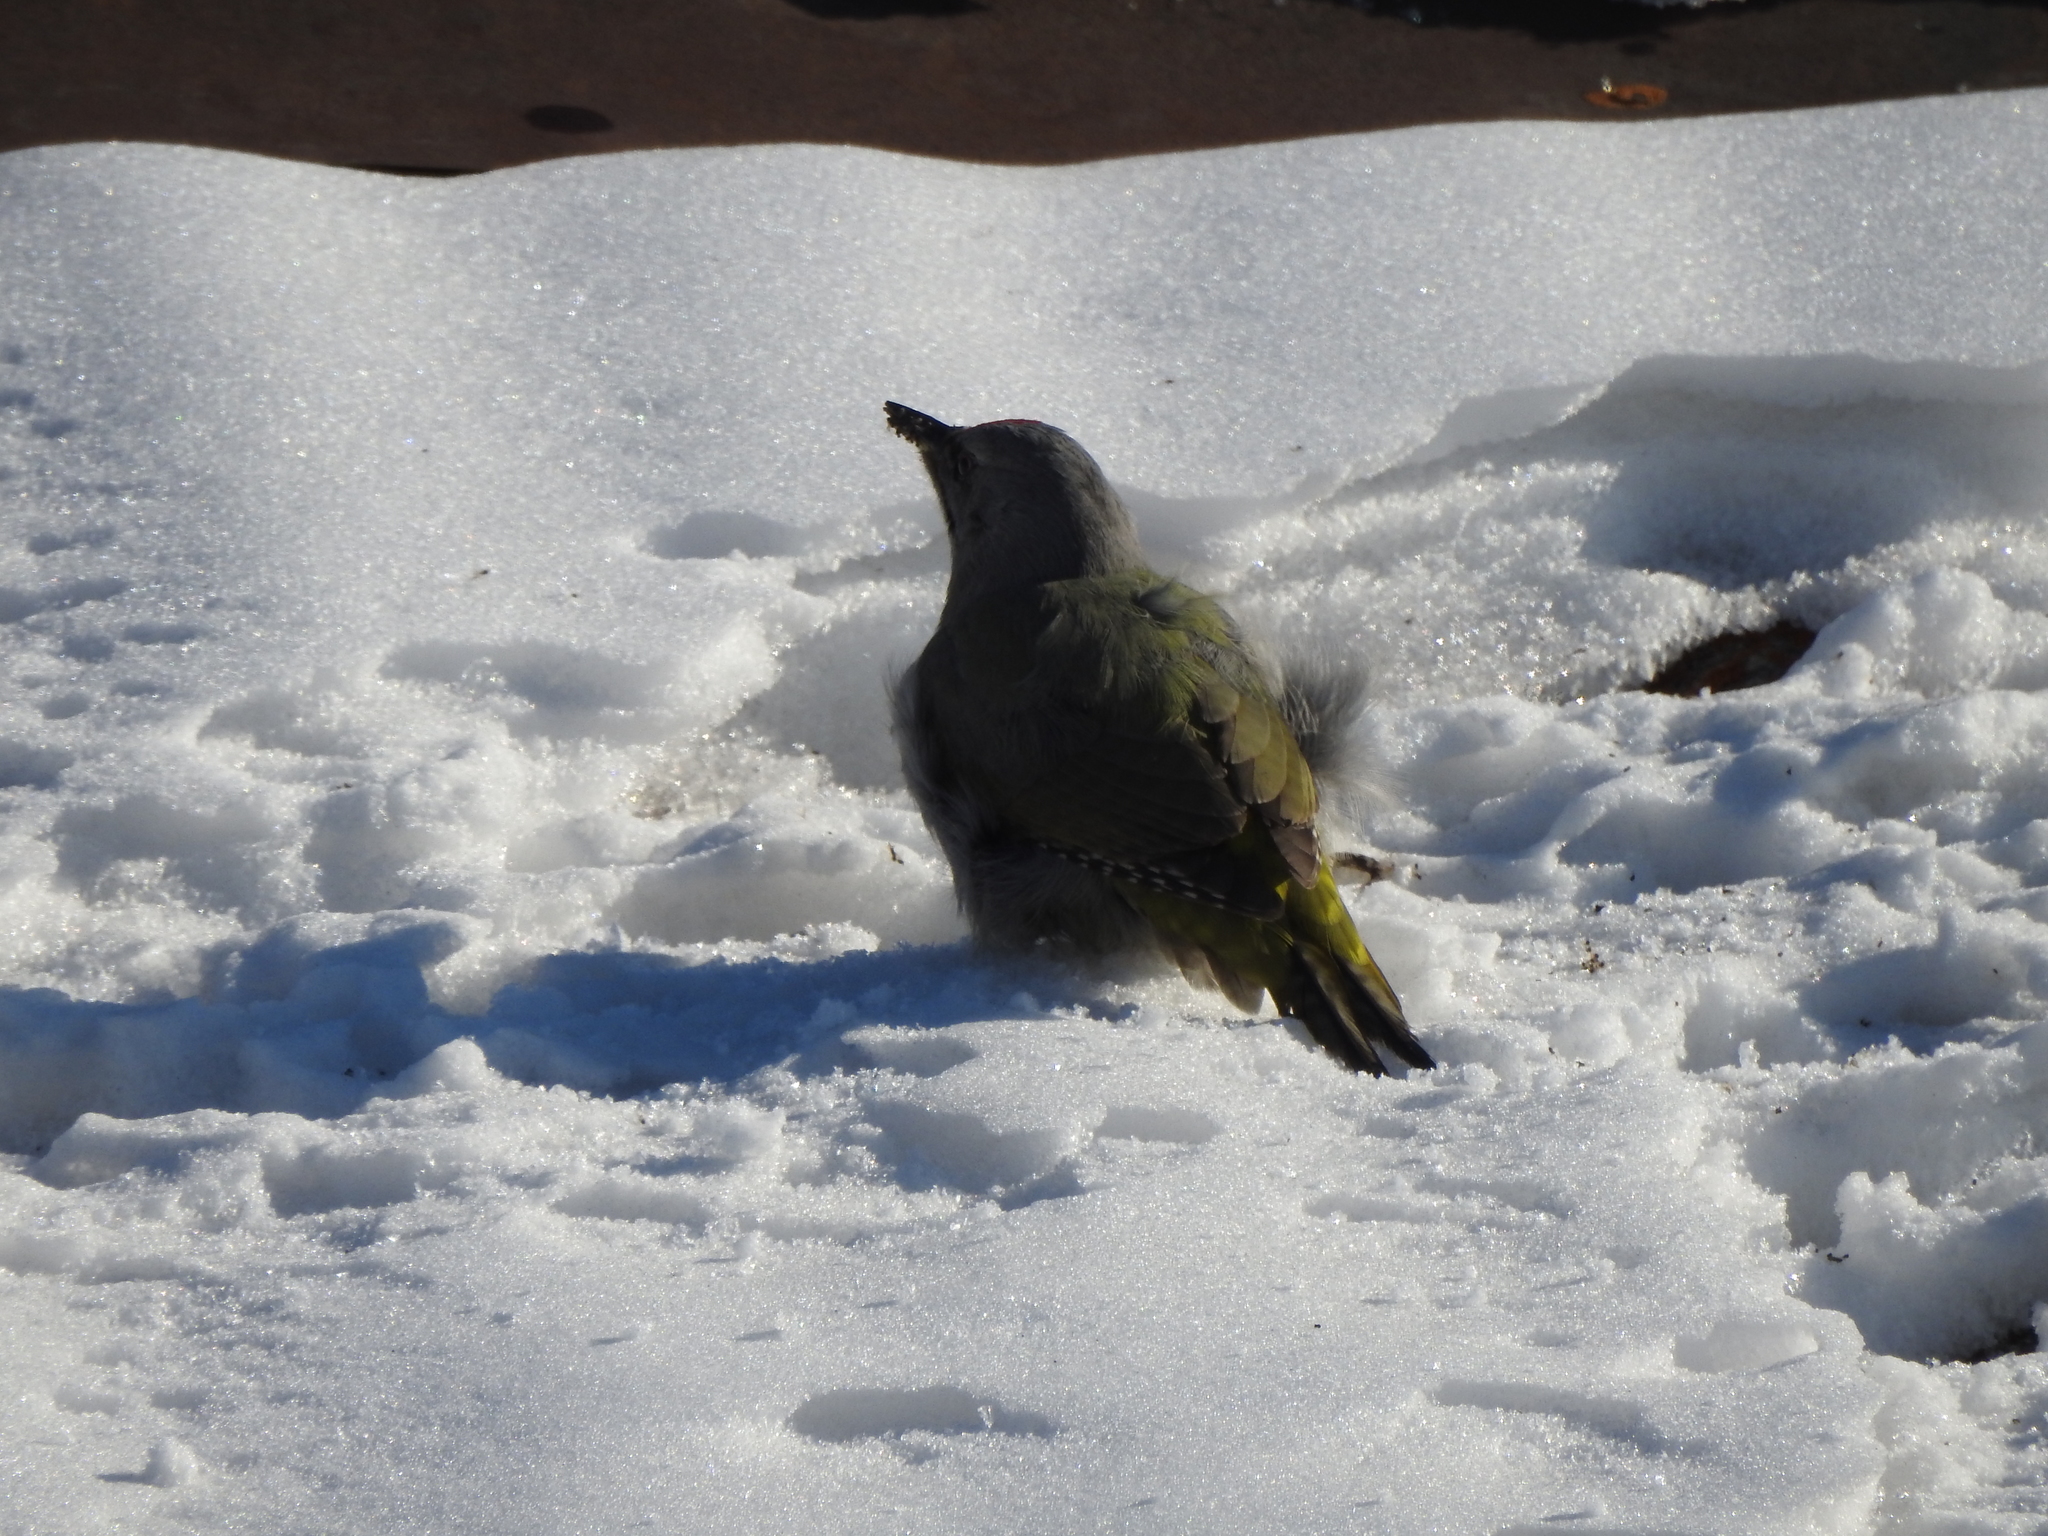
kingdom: Animalia
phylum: Chordata
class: Aves
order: Piciformes
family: Picidae
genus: Picus
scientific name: Picus canus
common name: Grey-headed woodpecker
